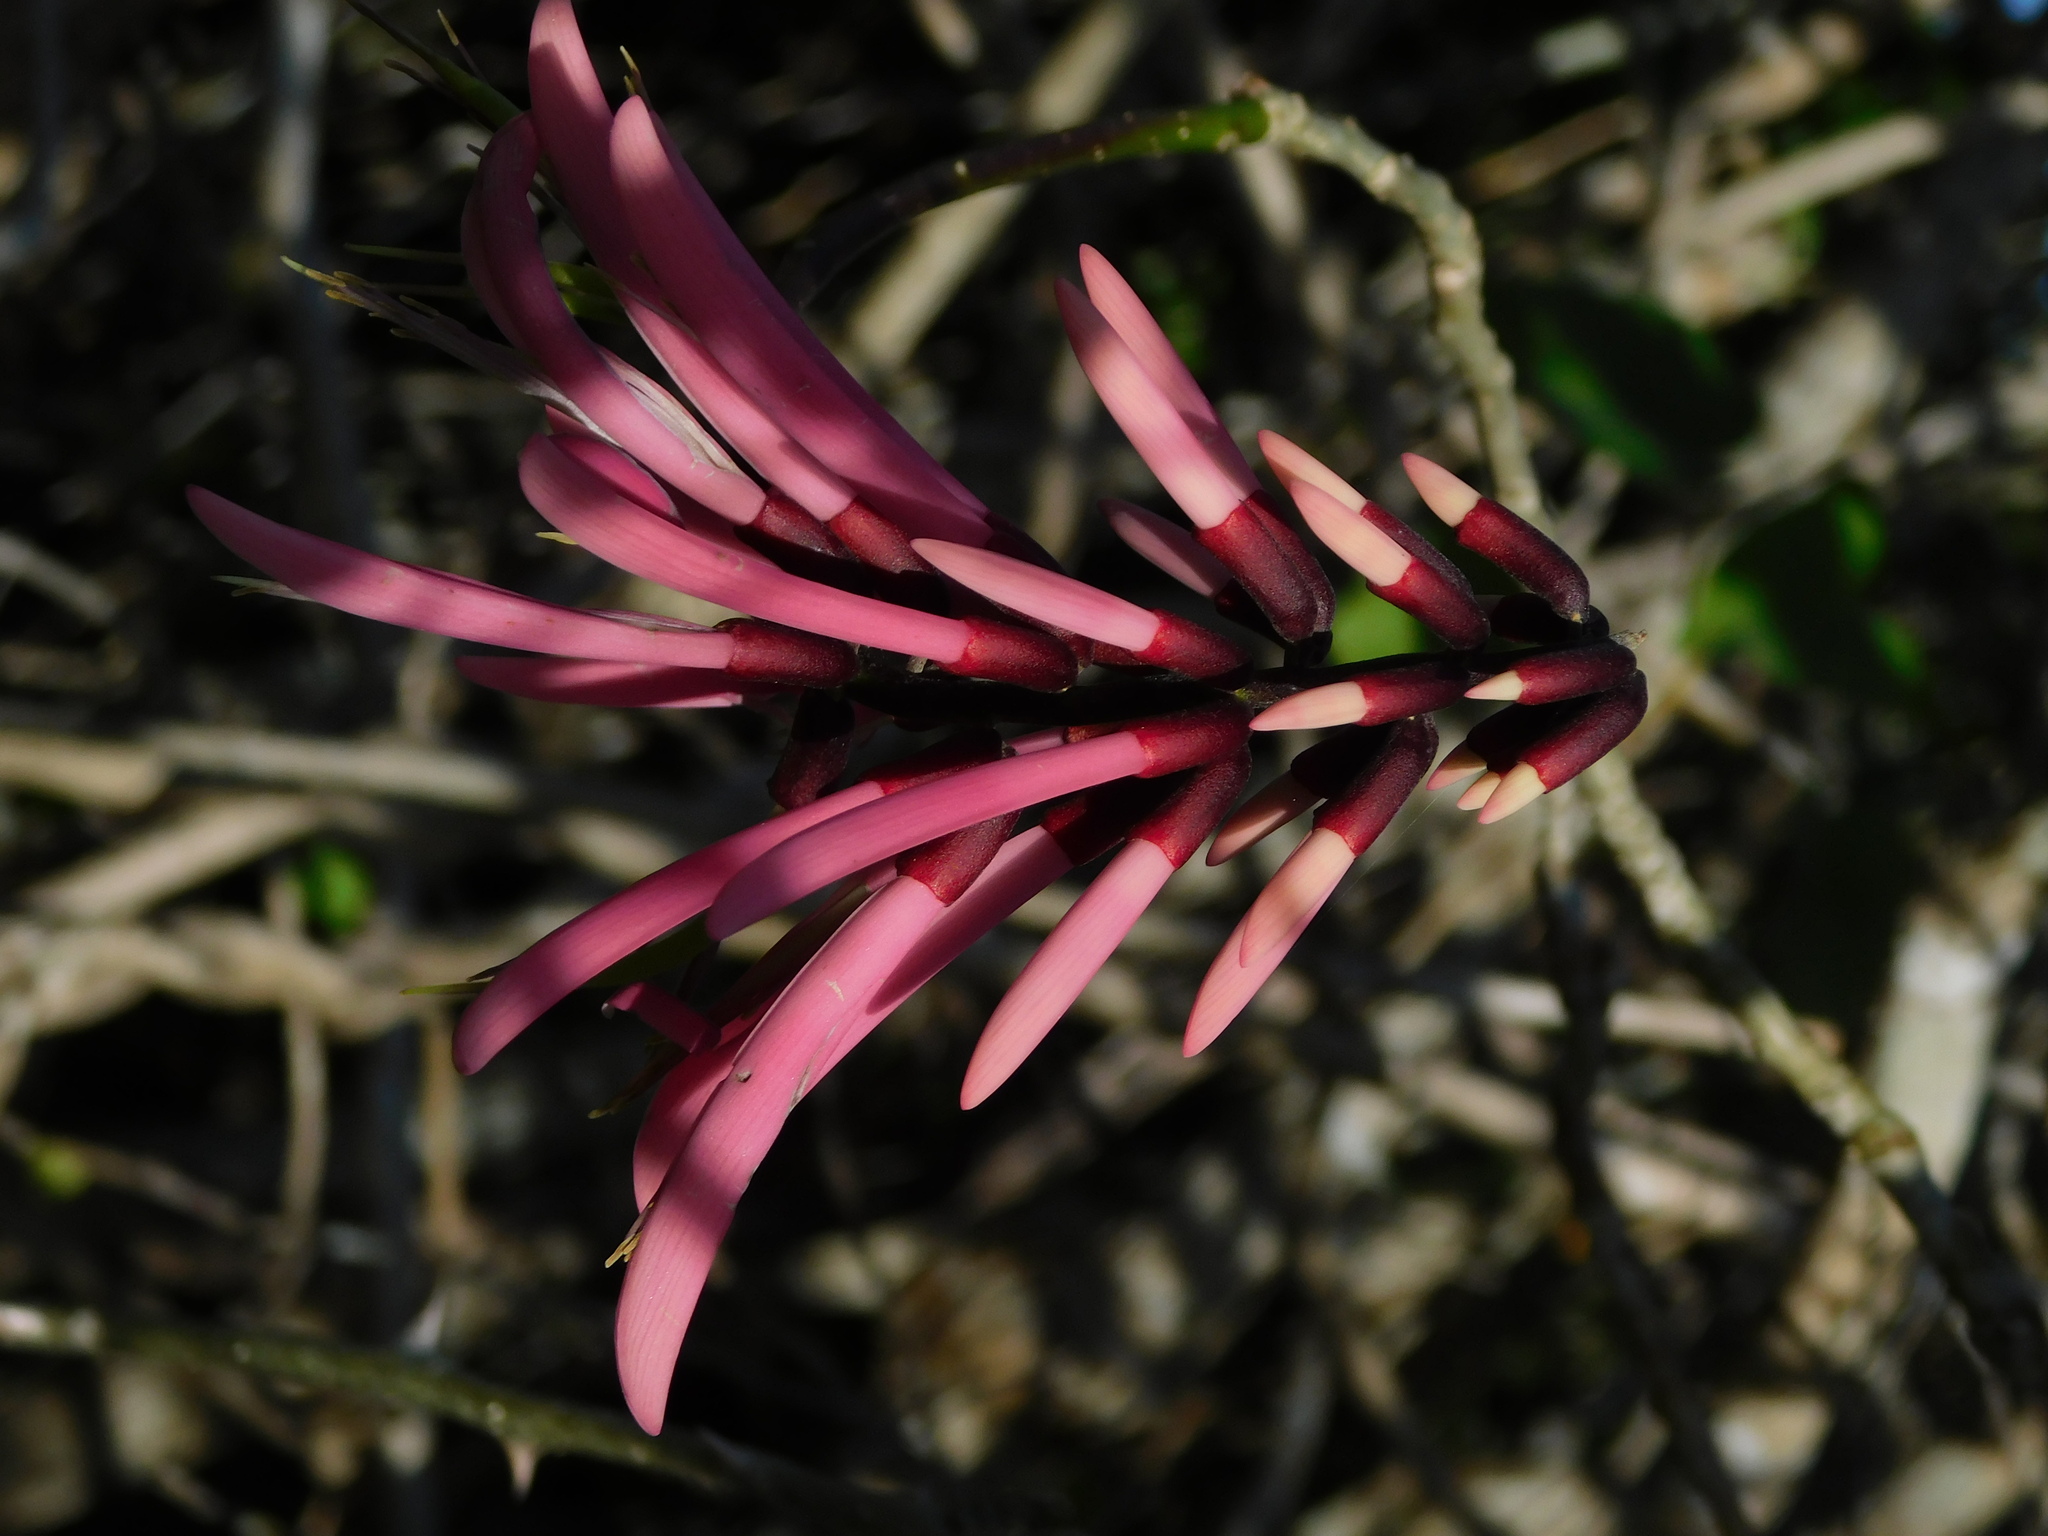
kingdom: Plantae
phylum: Tracheophyta
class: Magnoliopsida
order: Fabales
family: Fabaceae
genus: Erythrina
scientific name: Erythrina standleyana
